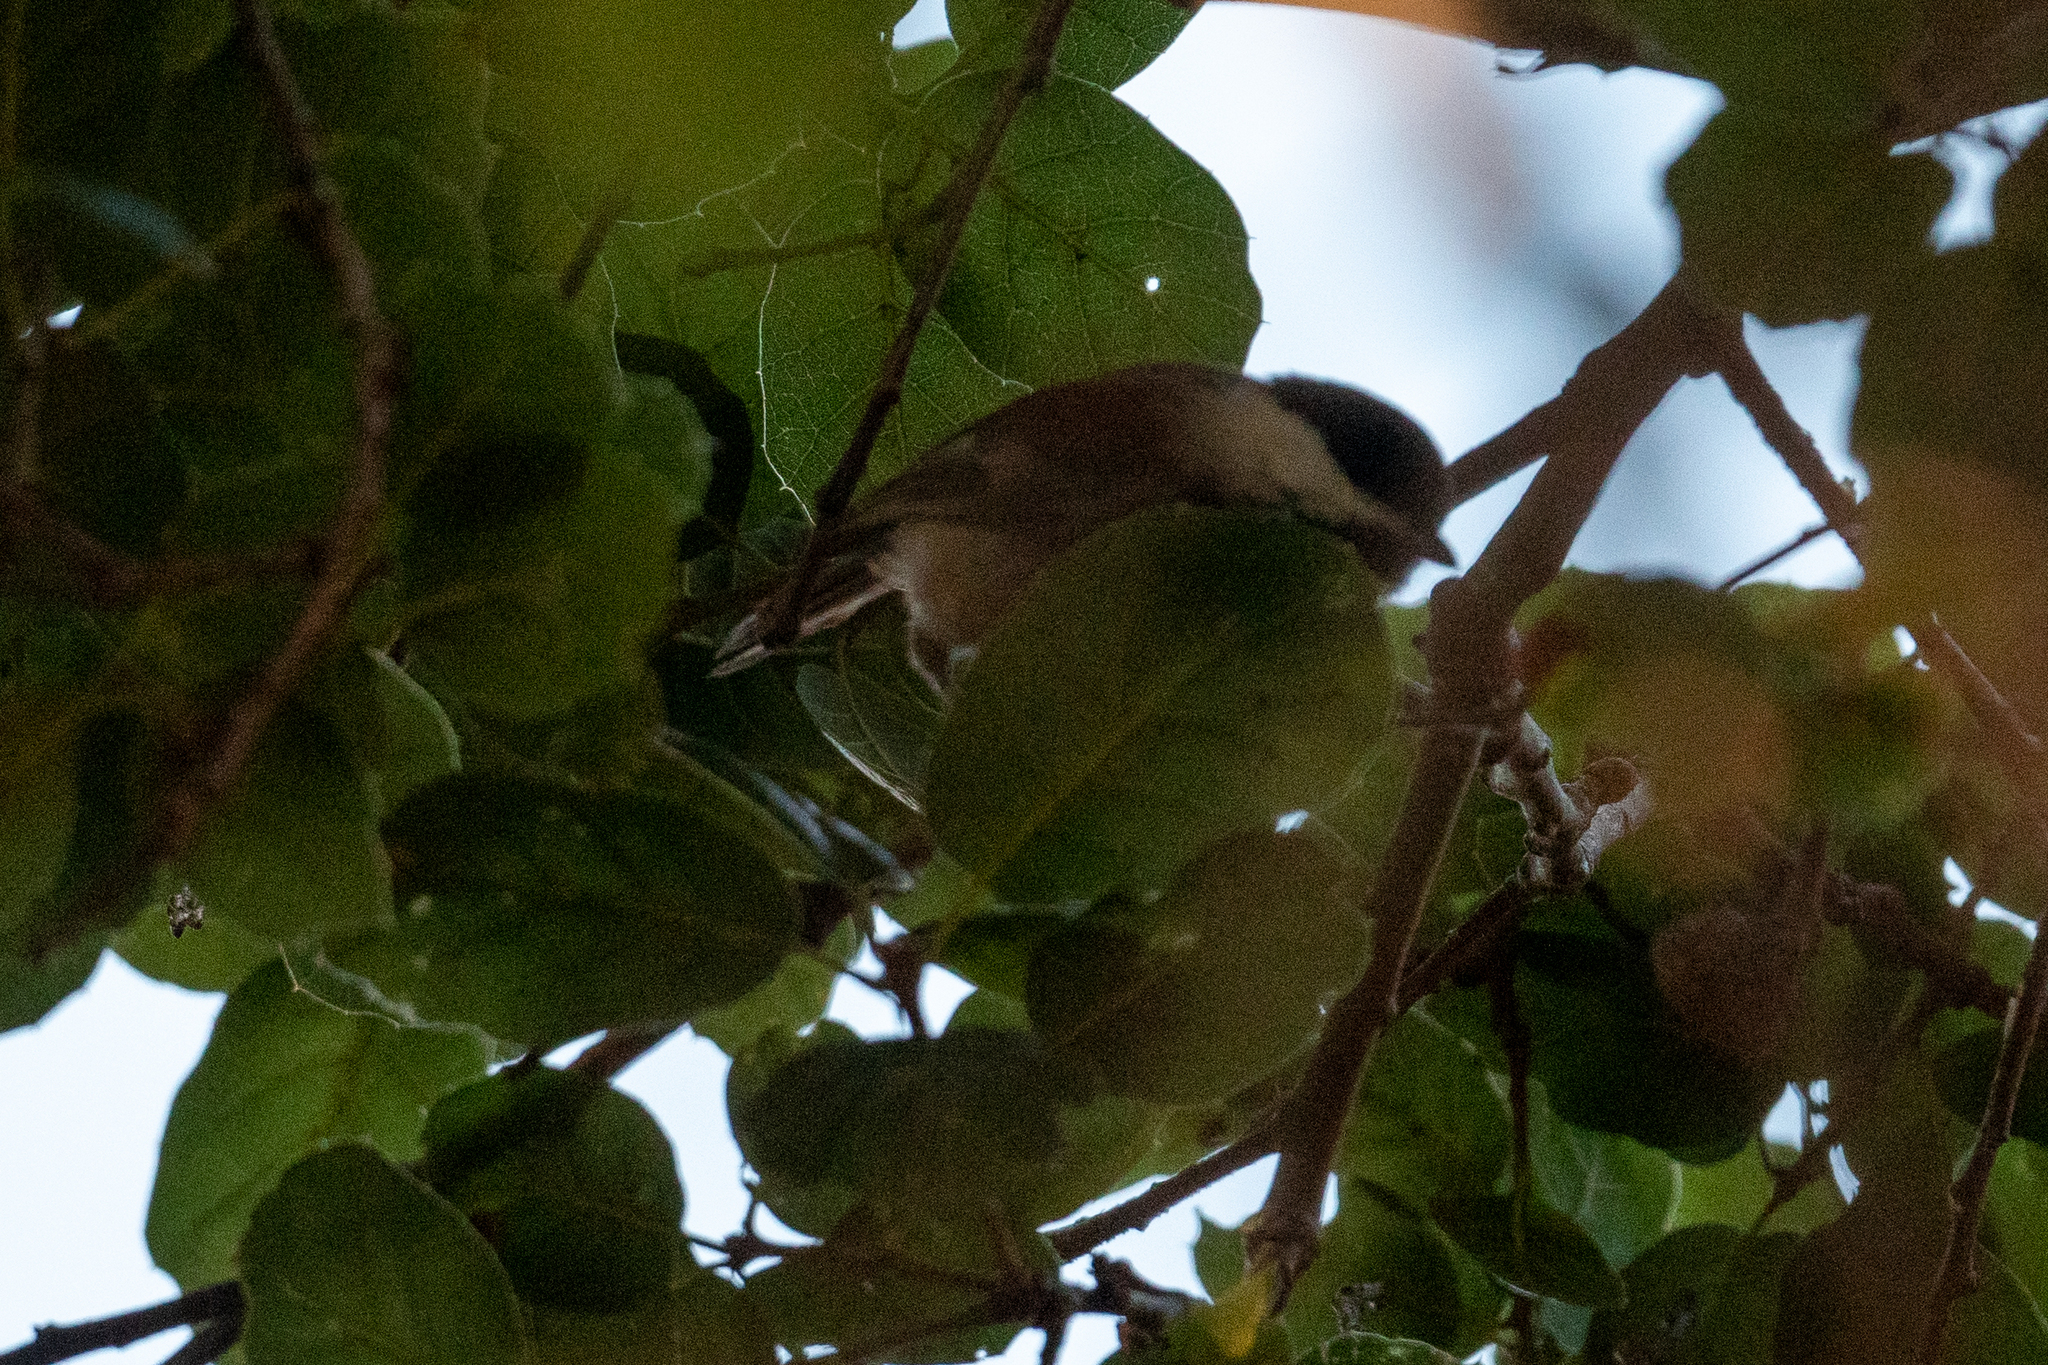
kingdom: Animalia
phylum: Chordata
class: Aves
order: Passeriformes
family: Paridae
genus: Poecile
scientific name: Poecile rufescens
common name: Chestnut-backed chickadee
